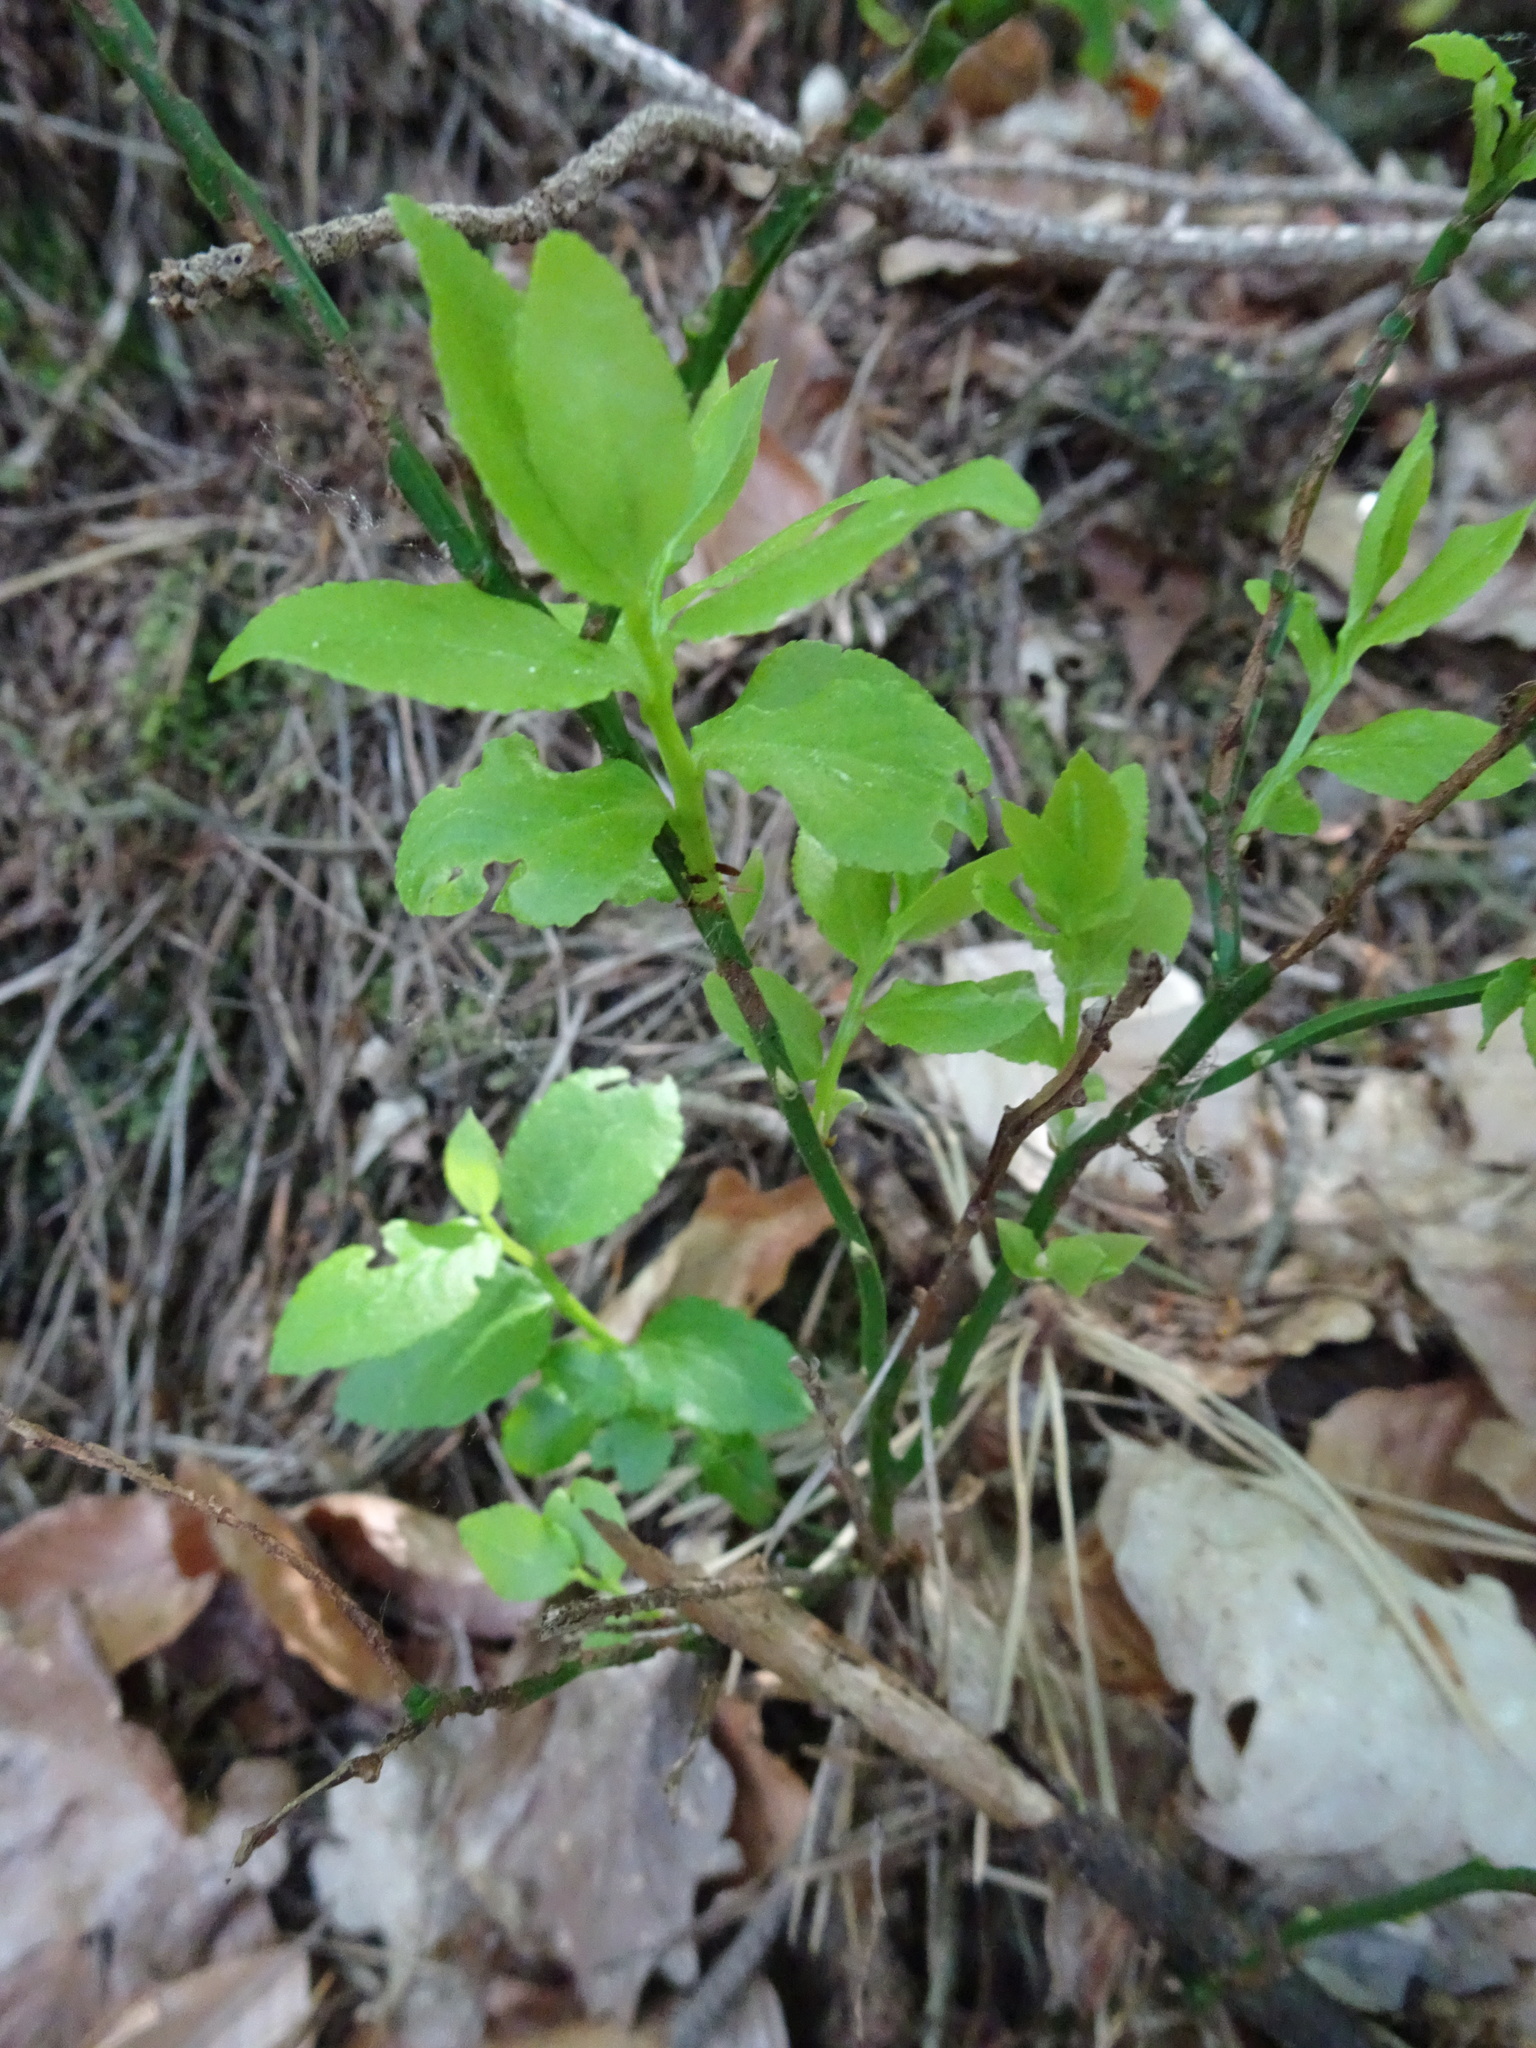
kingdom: Plantae
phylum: Tracheophyta
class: Magnoliopsida
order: Ericales
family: Ericaceae
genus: Vaccinium
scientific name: Vaccinium myrtillus
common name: Bilberry
